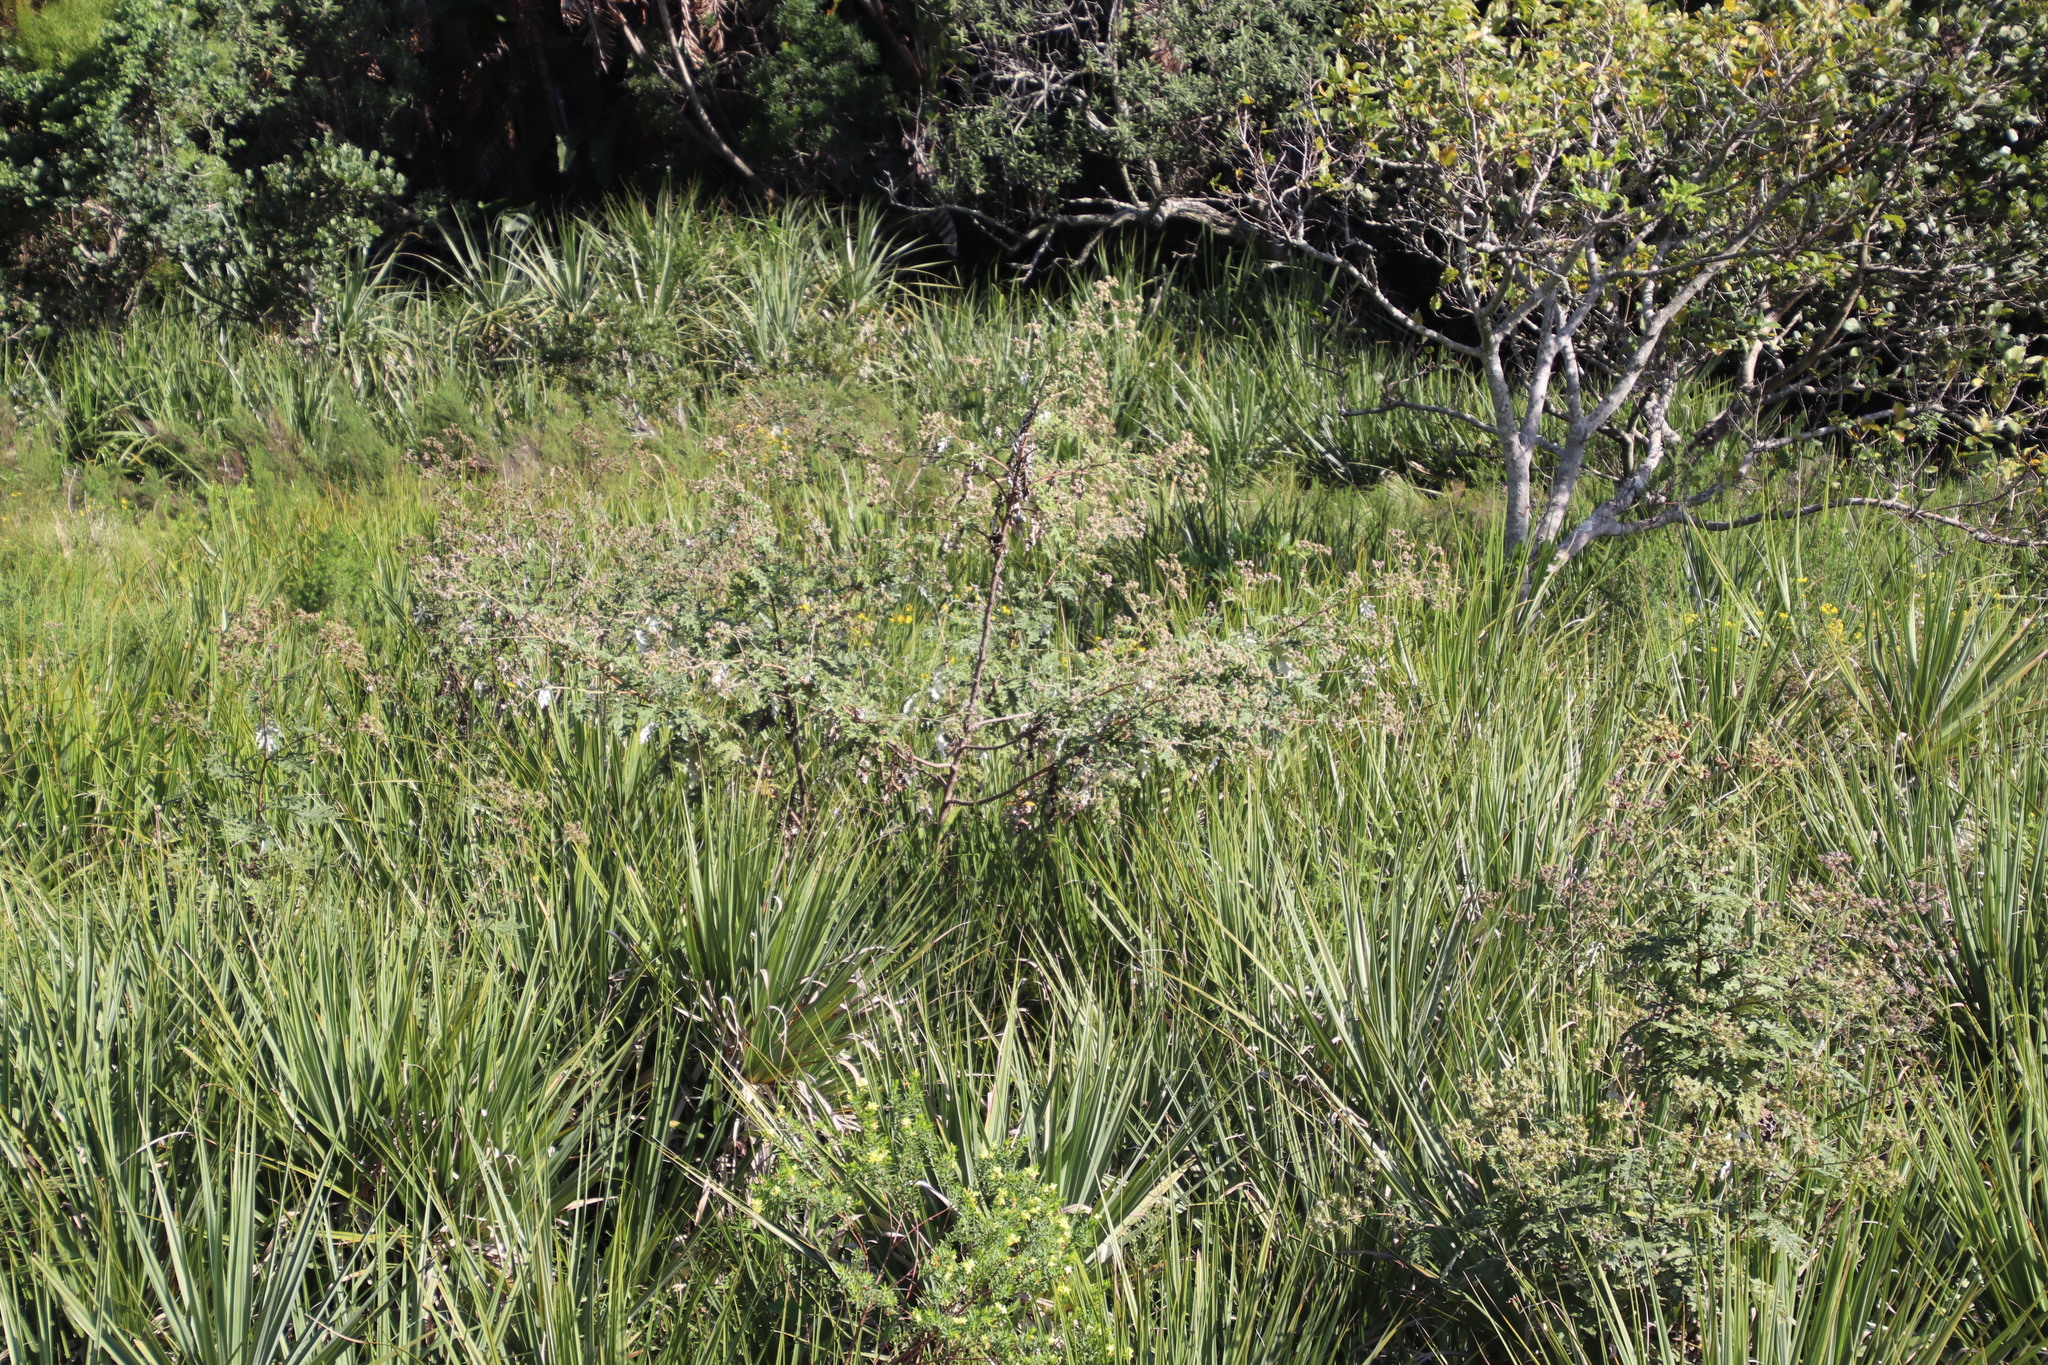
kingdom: Plantae
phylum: Tracheophyta
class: Magnoliopsida
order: Asterales
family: Asteraceae
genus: Berkheya
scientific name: Berkheya bipinnatifida
